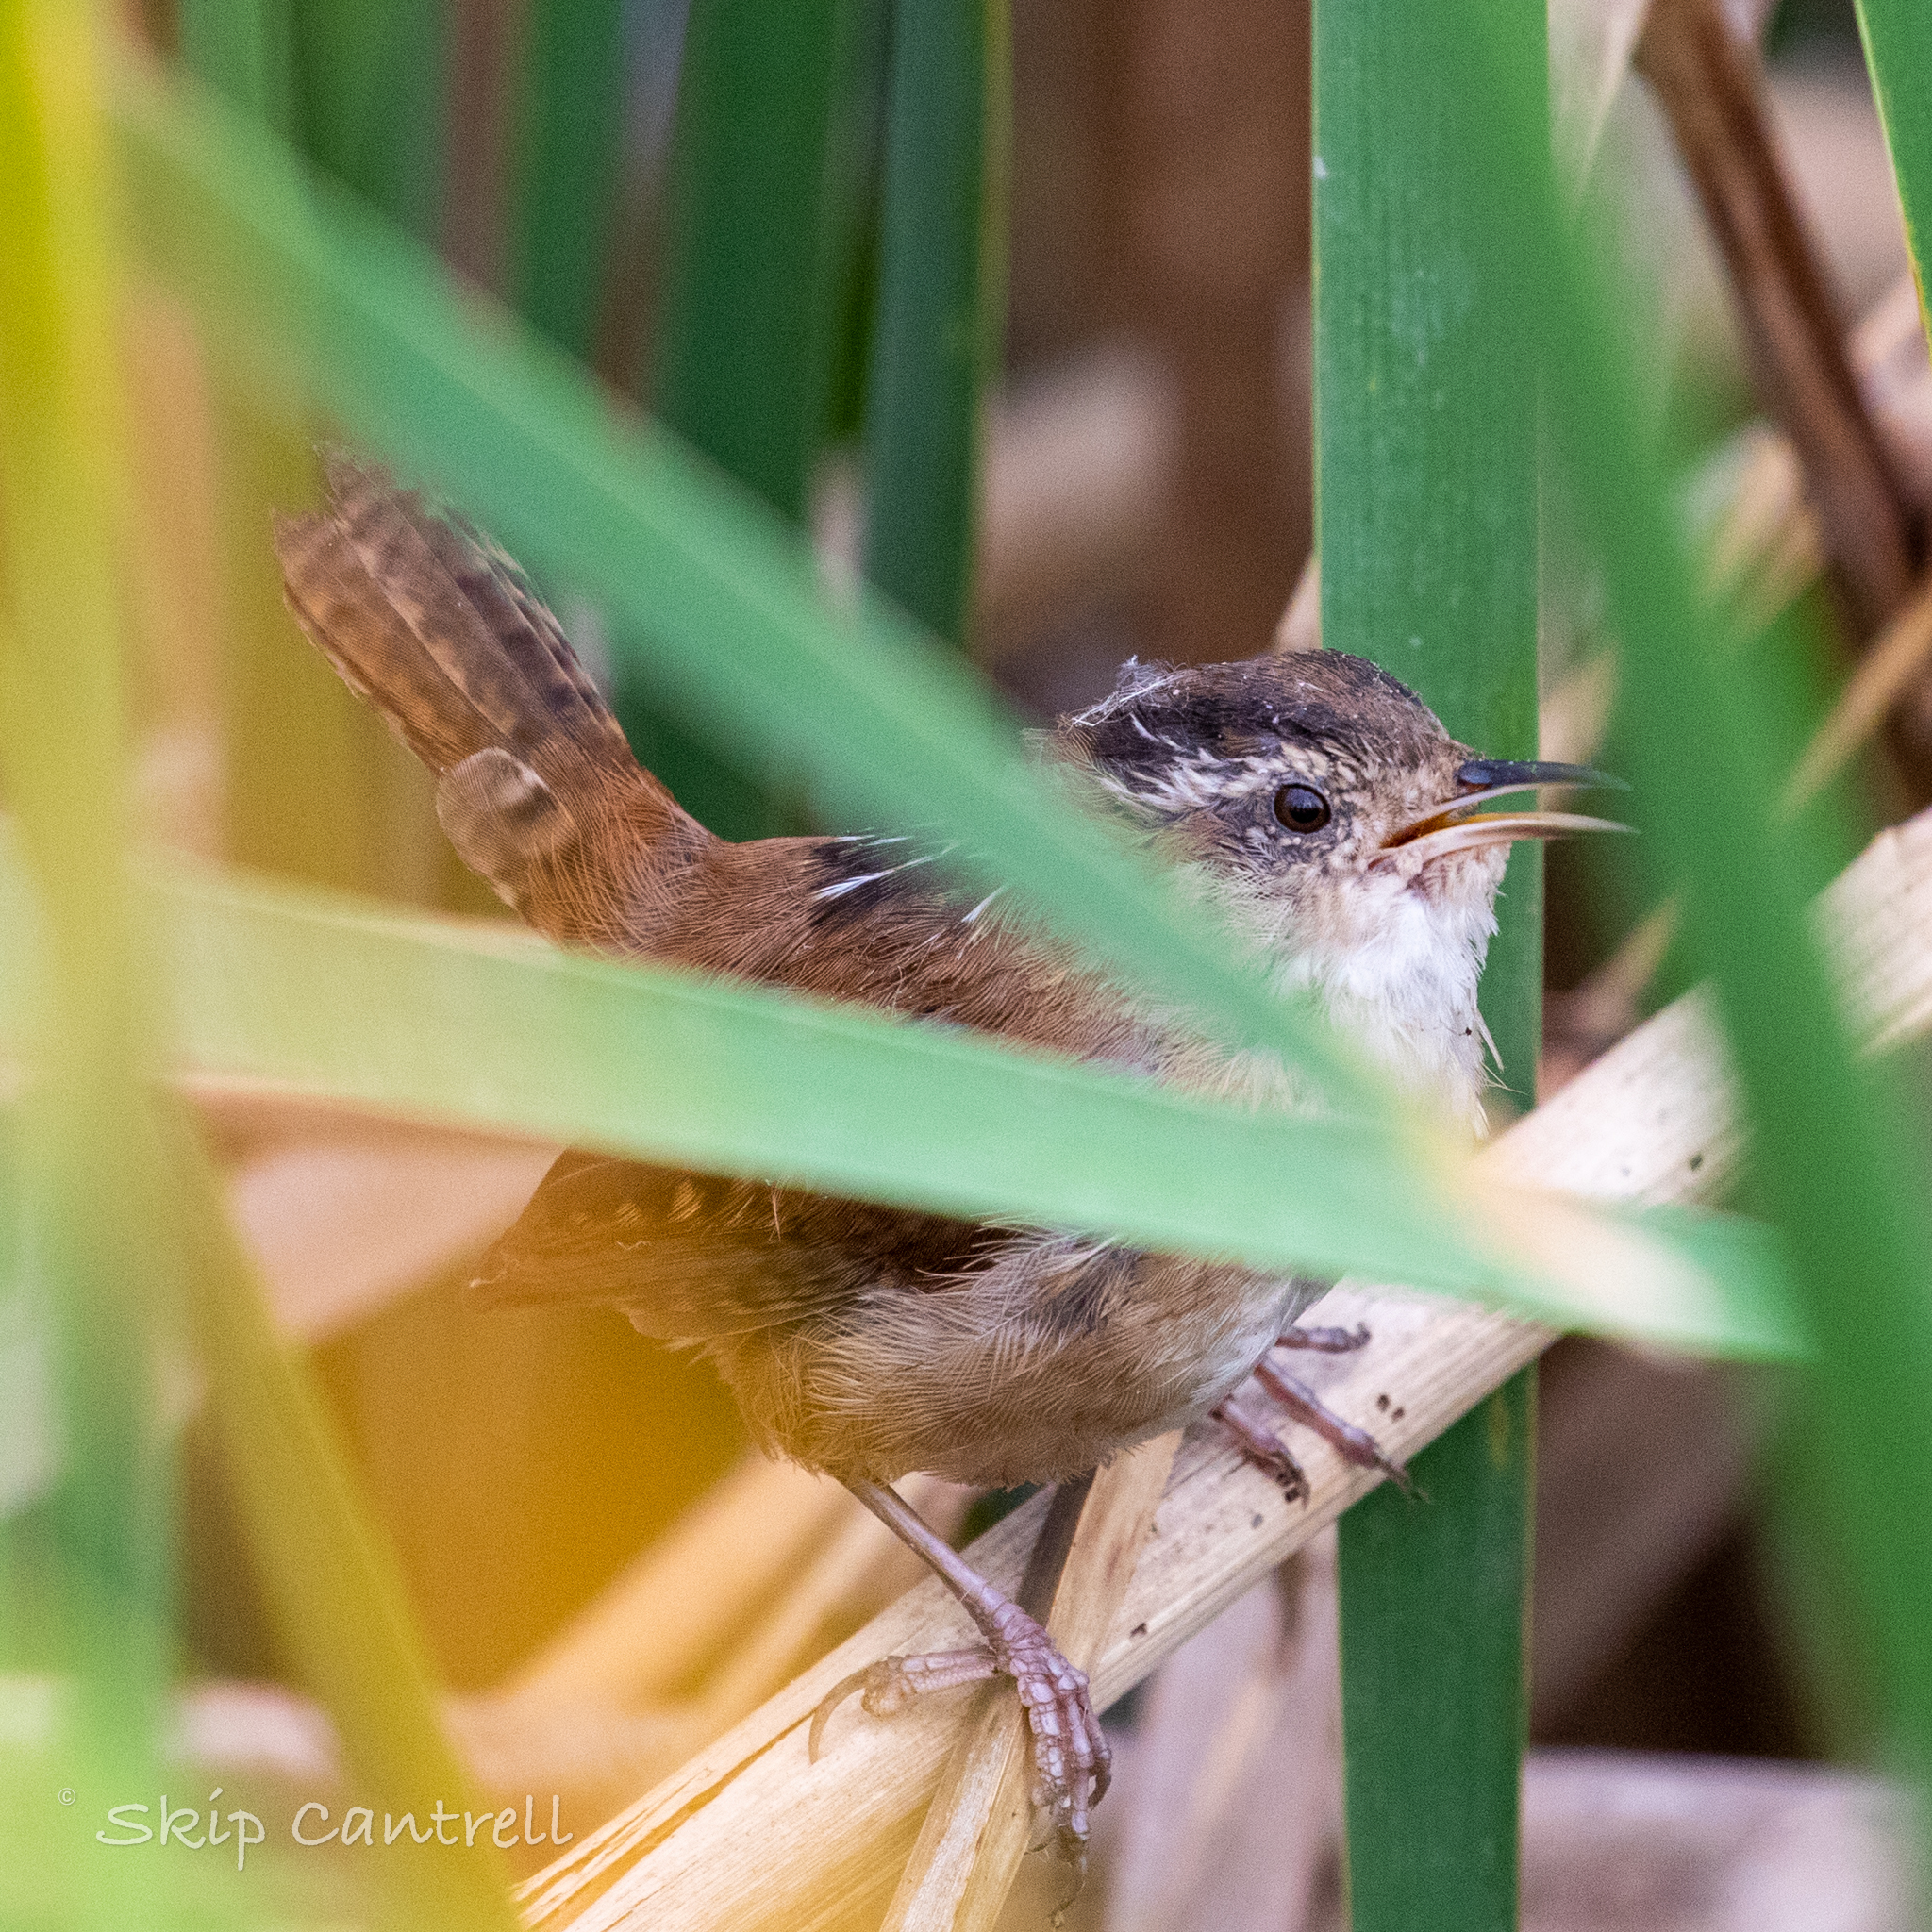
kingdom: Animalia
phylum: Chordata
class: Aves
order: Passeriformes
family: Troglodytidae
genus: Cistothorus
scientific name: Cistothorus palustris
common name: Marsh wren
